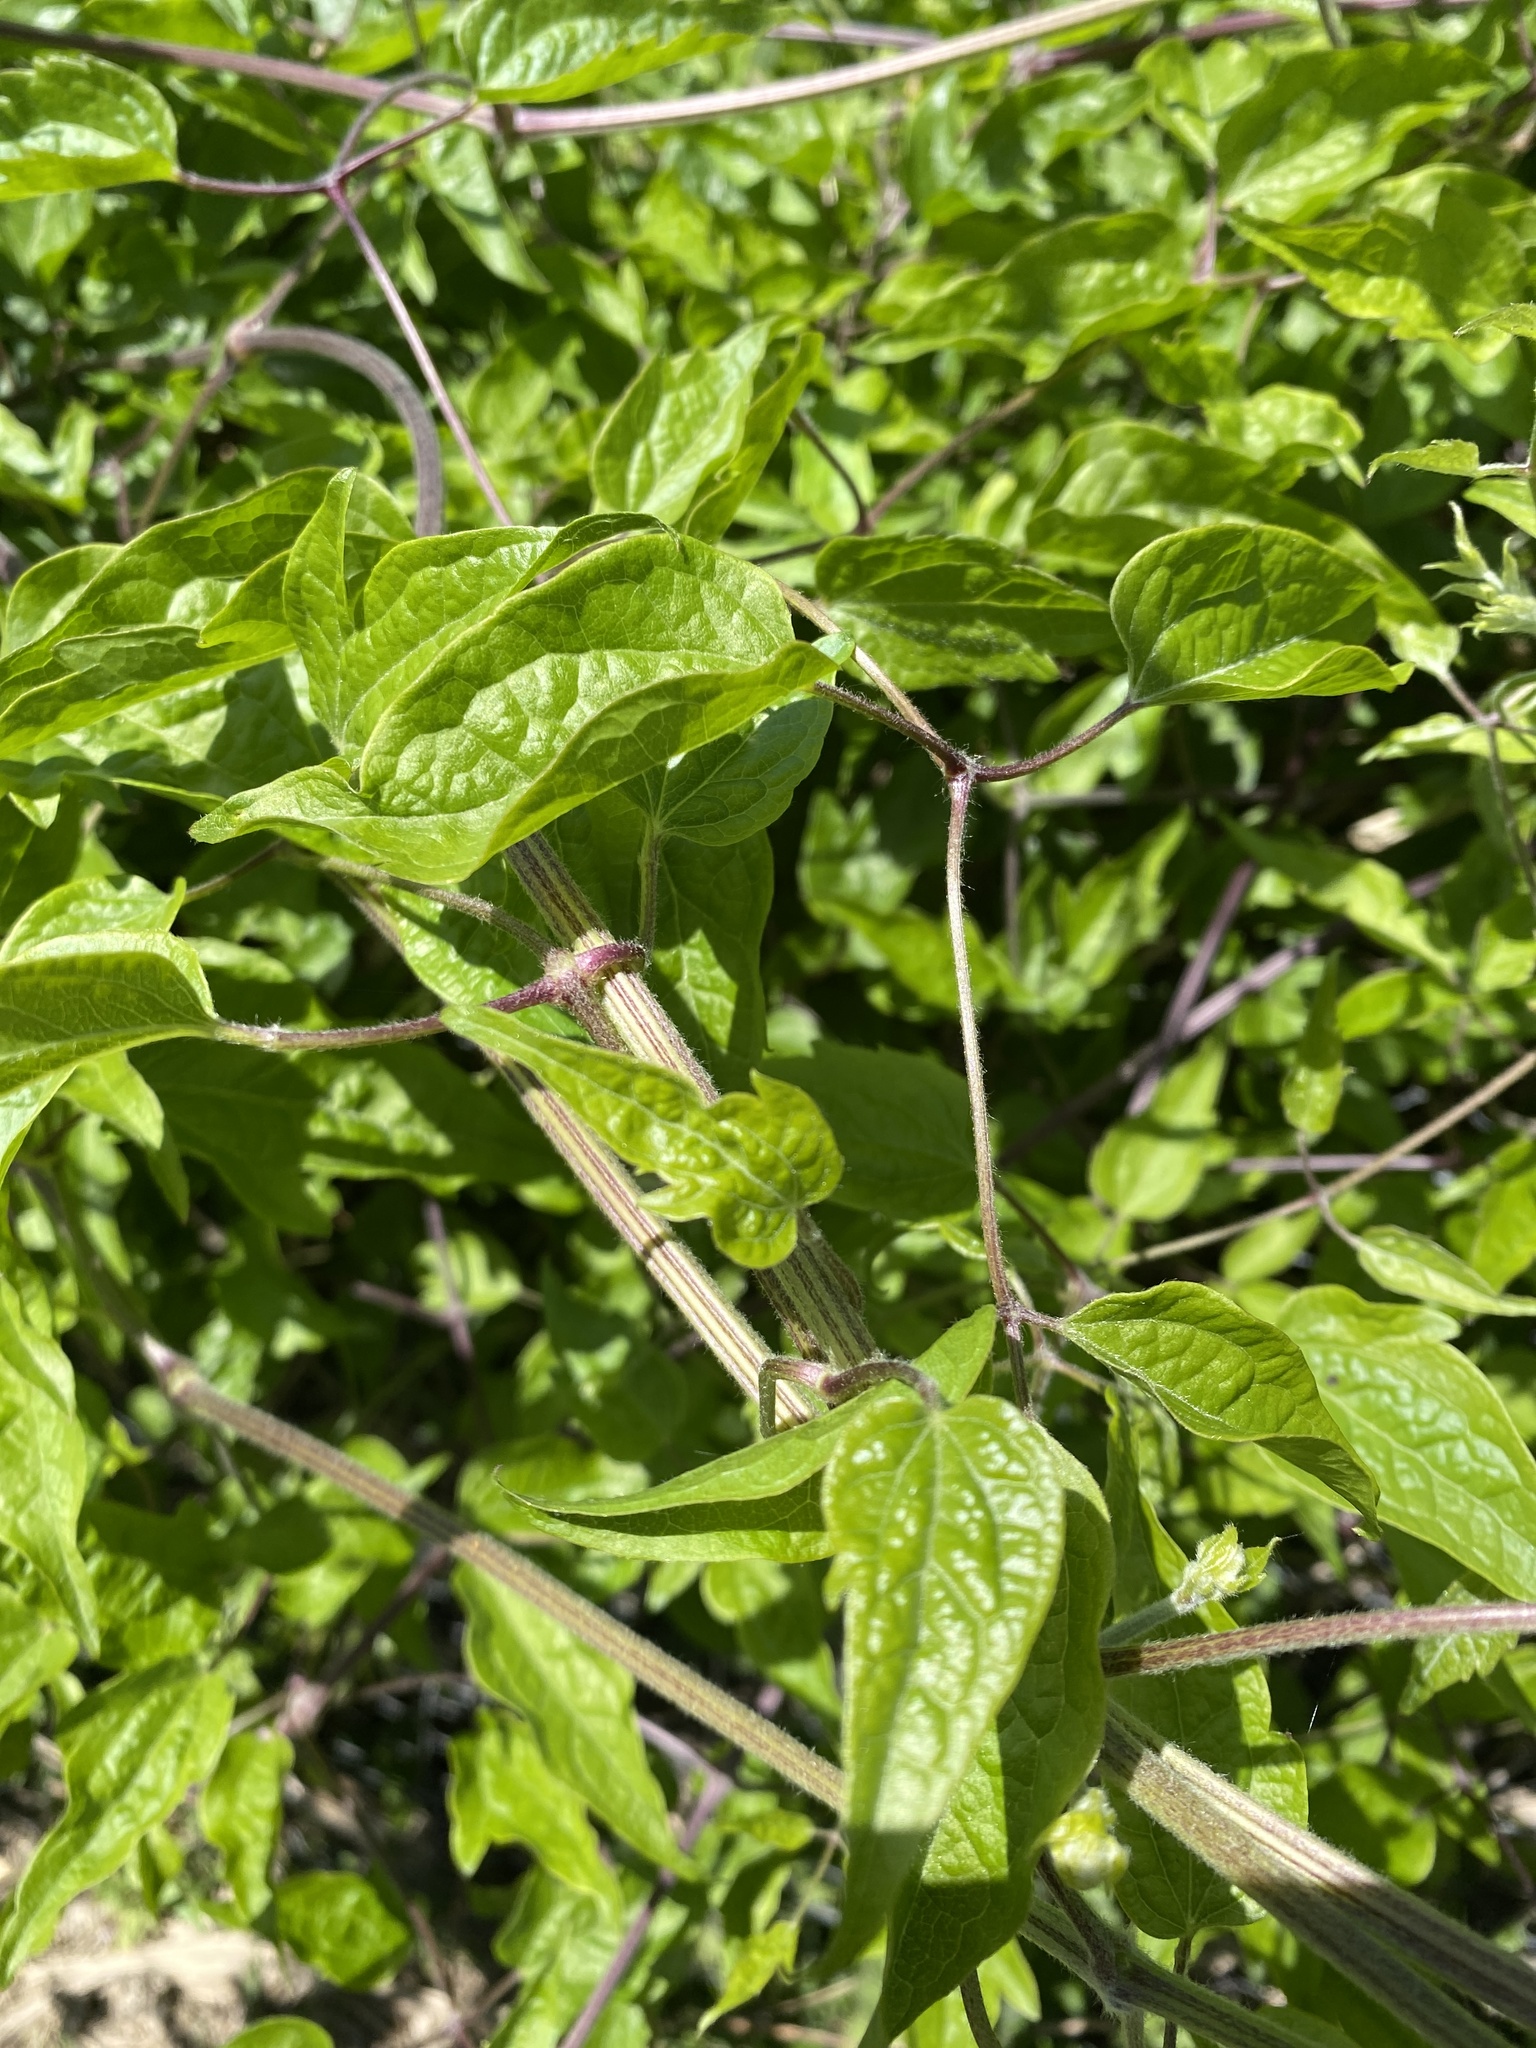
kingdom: Plantae
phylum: Tracheophyta
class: Magnoliopsida
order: Ranunculales
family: Ranunculaceae
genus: Clematis
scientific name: Clematis vitalba
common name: Evergreen clematis
